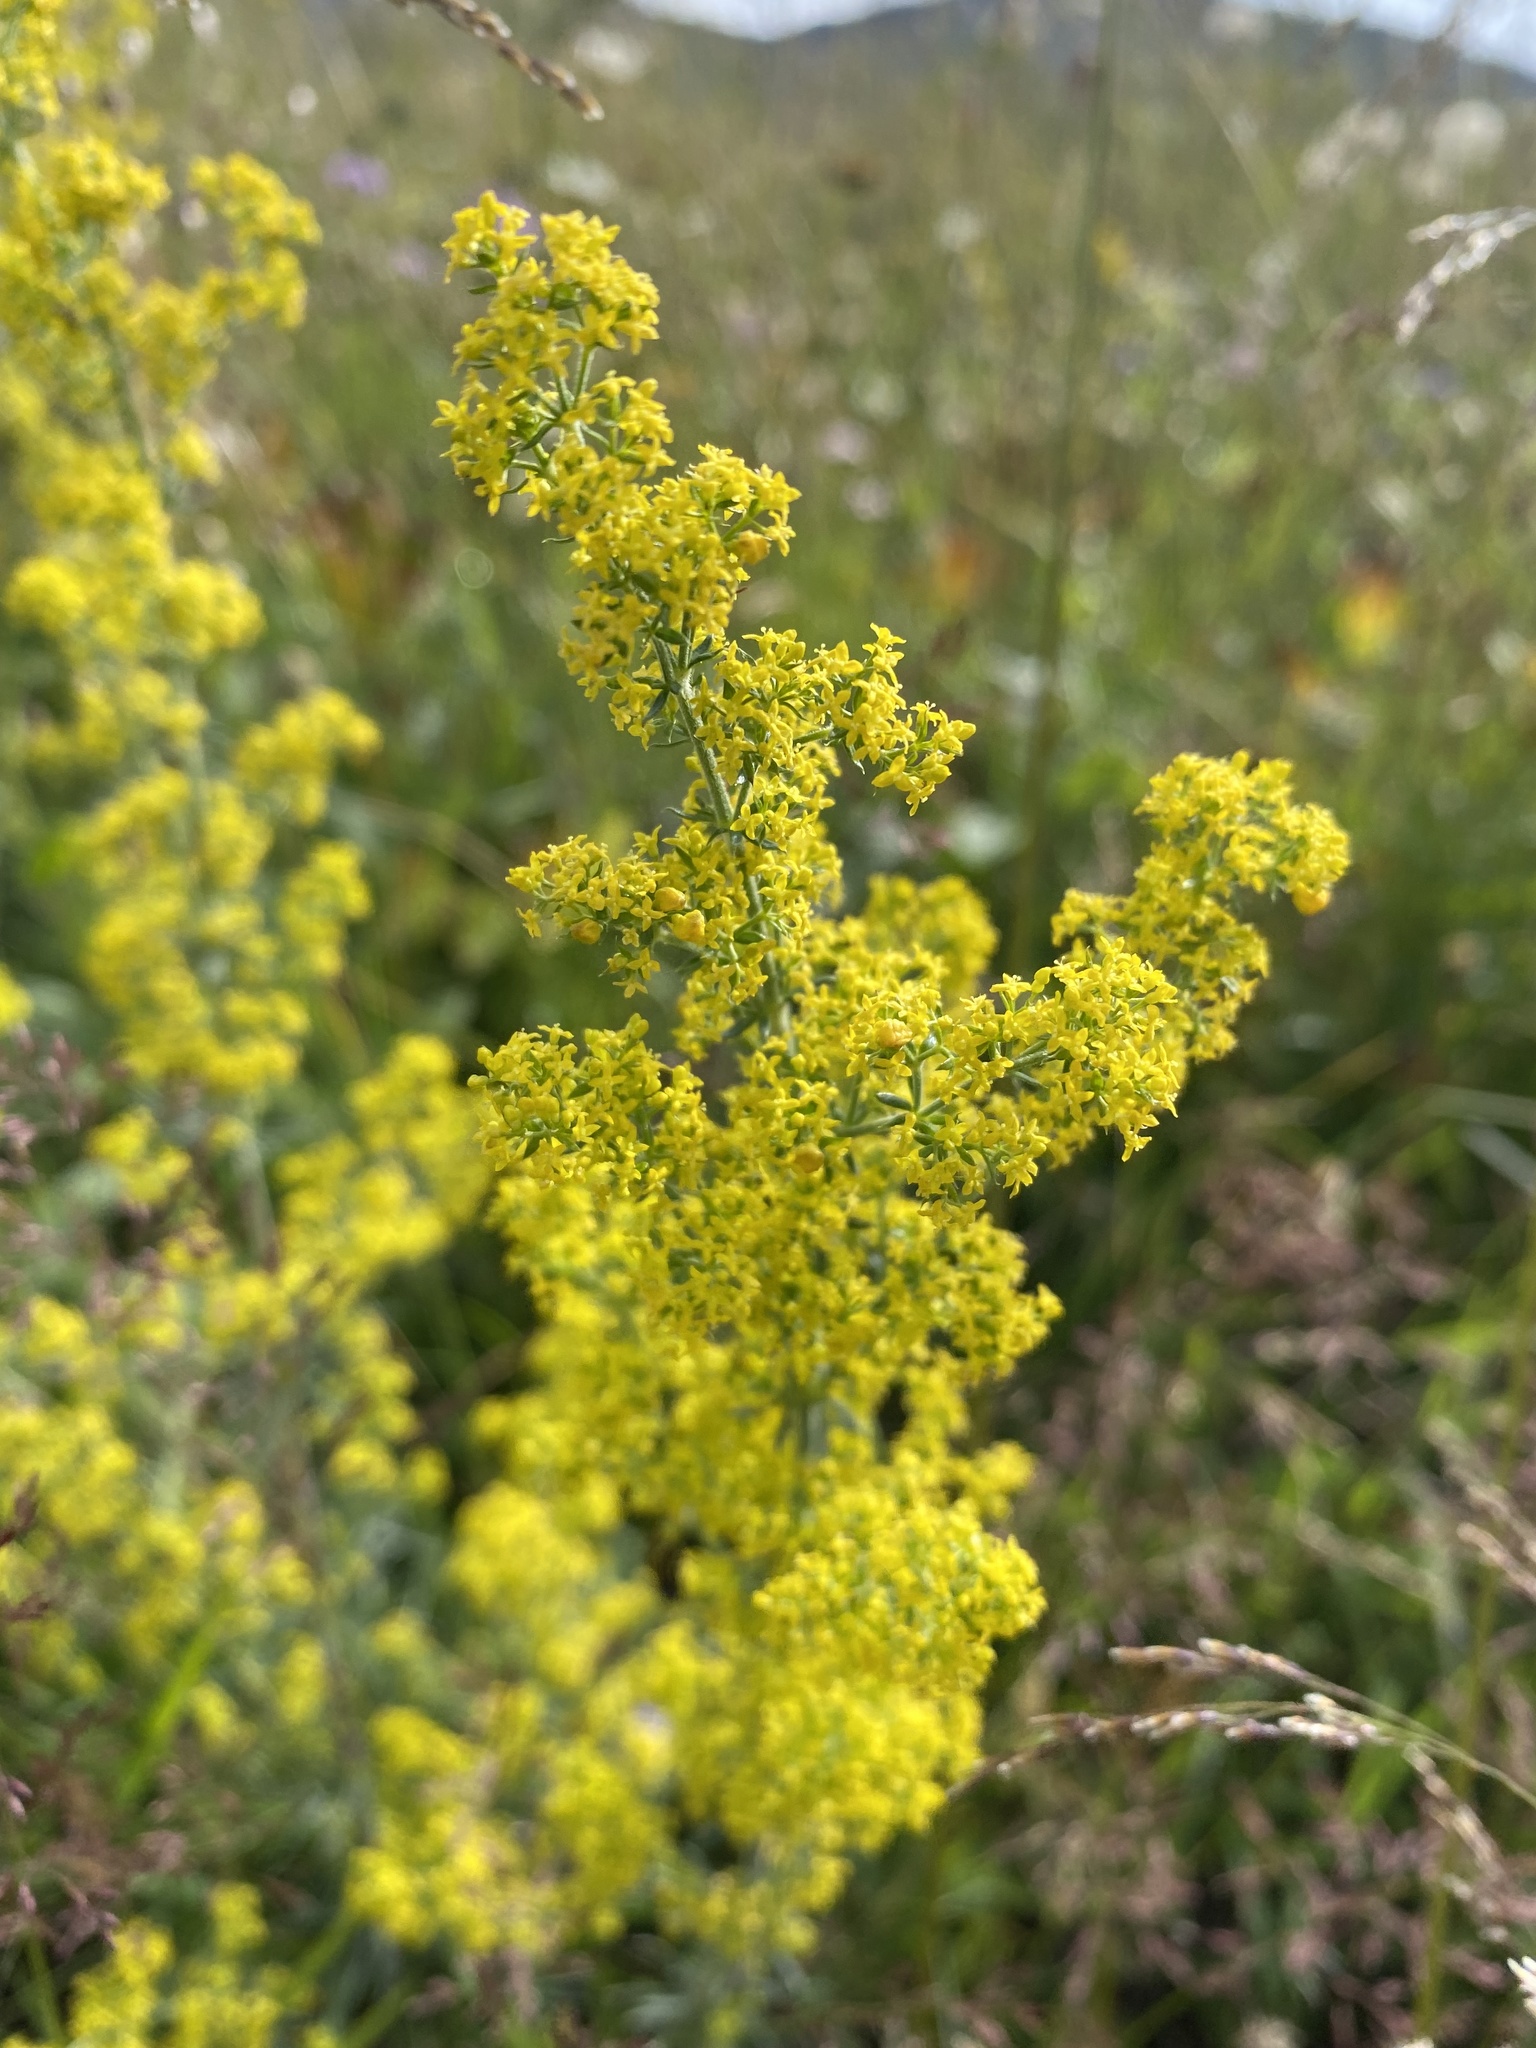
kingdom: Plantae
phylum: Tracheophyta
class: Magnoliopsida
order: Gentianales
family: Rubiaceae
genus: Galium
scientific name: Galium verum
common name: Lady's bedstraw
